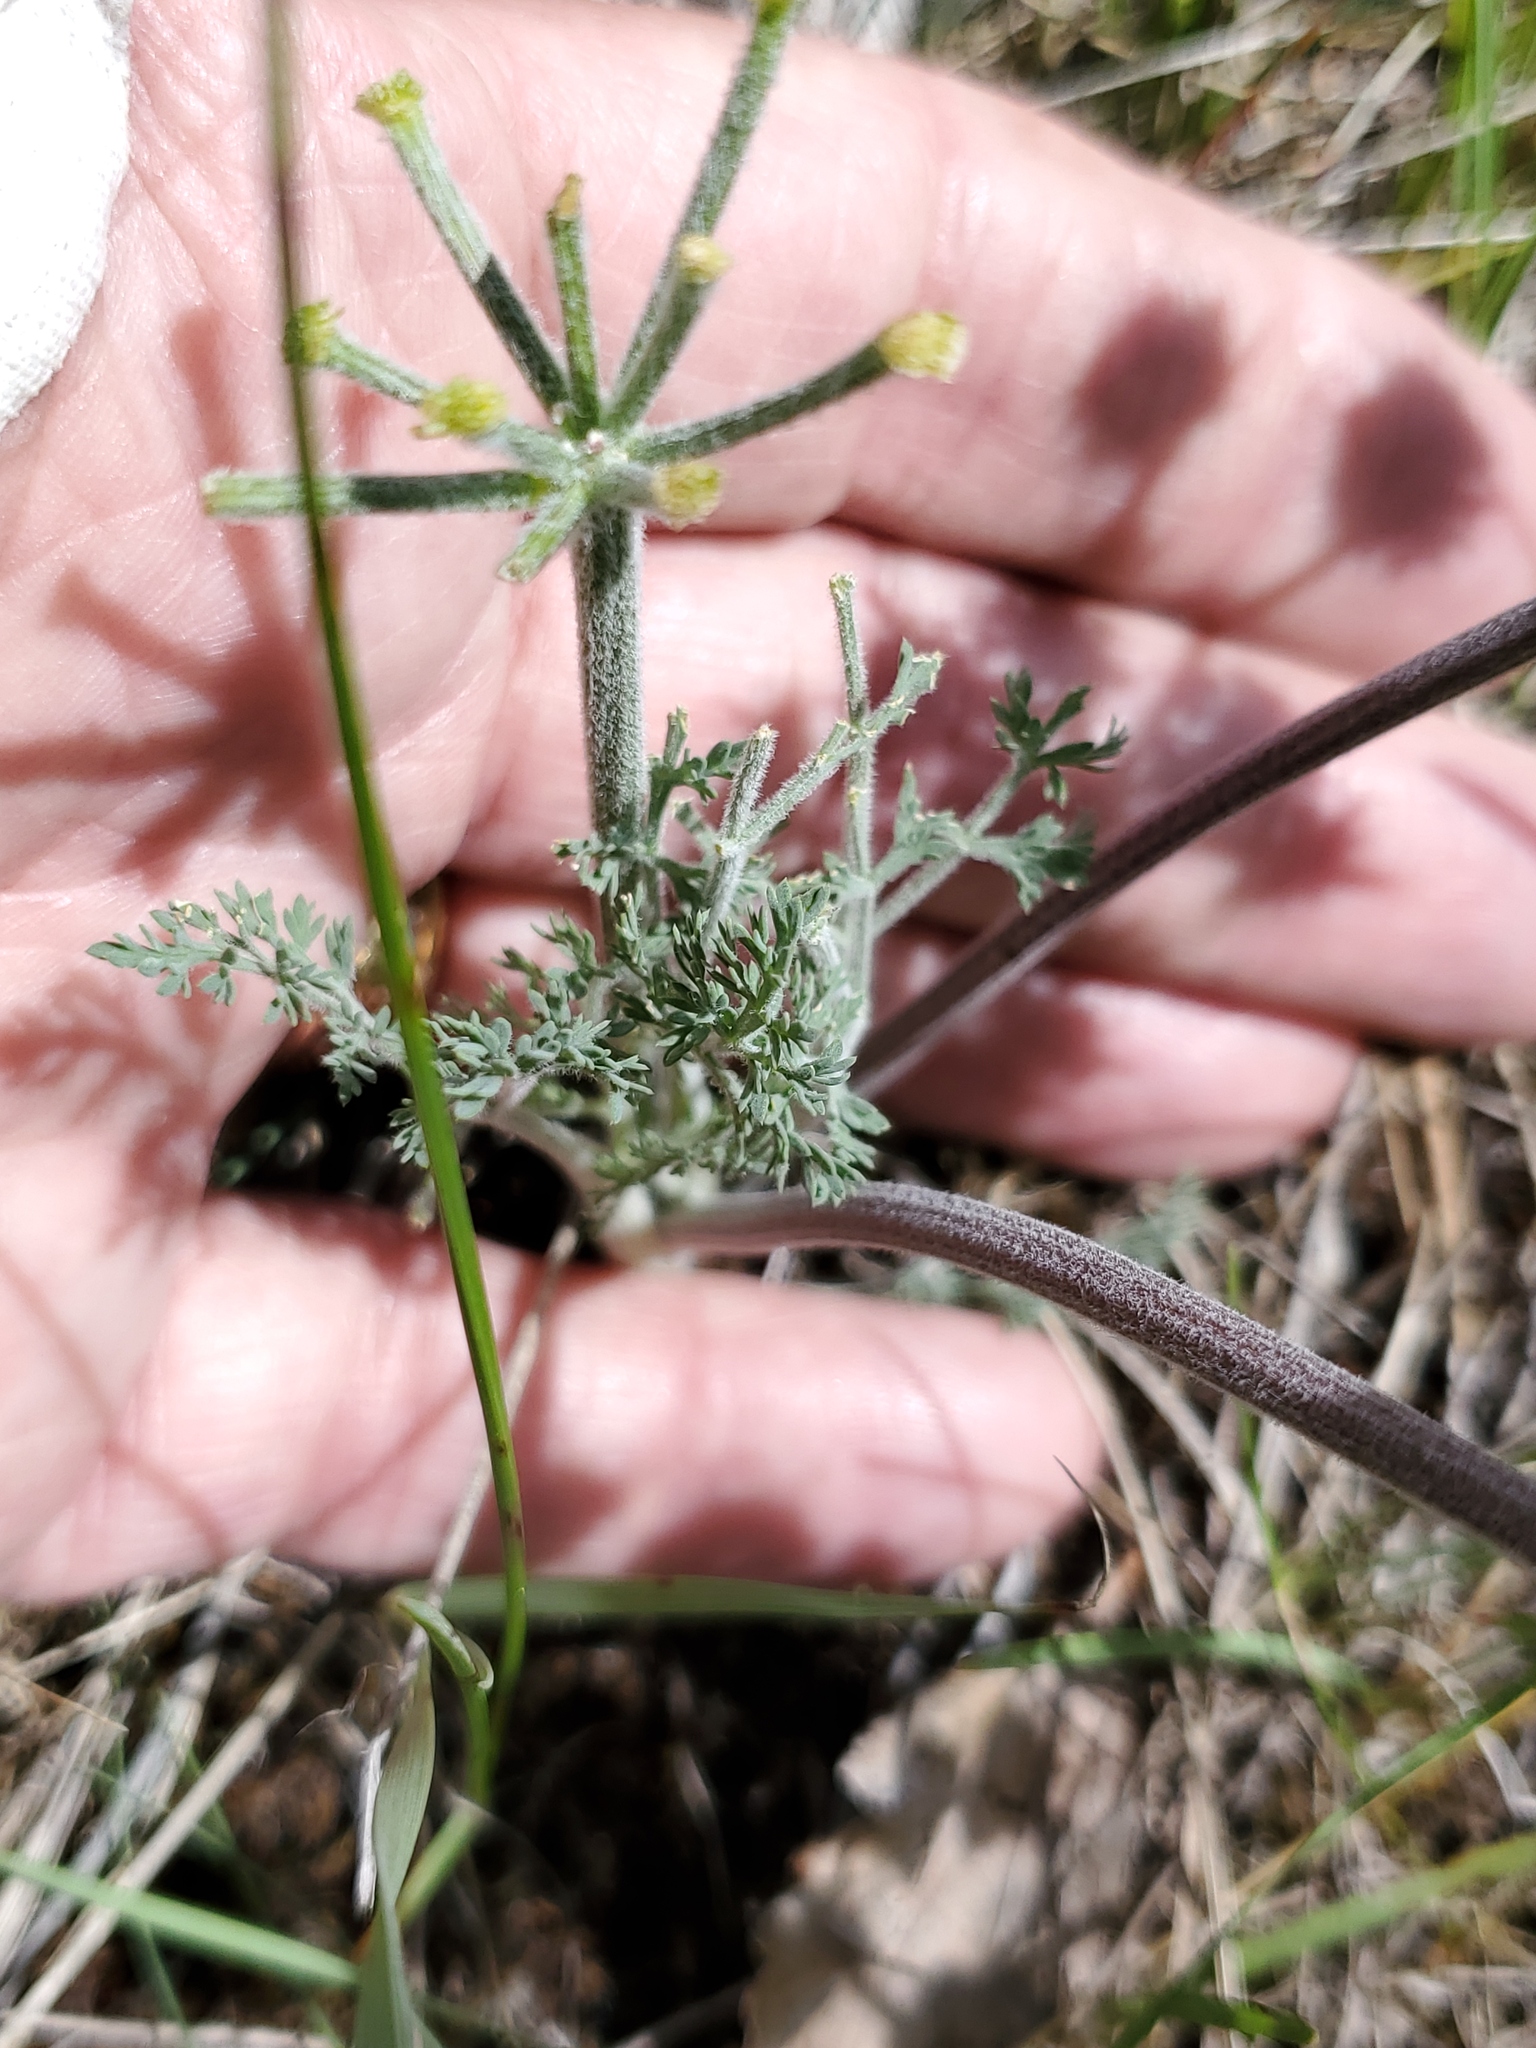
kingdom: Plantae
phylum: Tracheophyta
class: Magnoliopsida
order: Apiales
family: Apiaceae
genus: Lomatium
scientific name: Lomatium macrocarpum
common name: Big-seed biscuitroot
